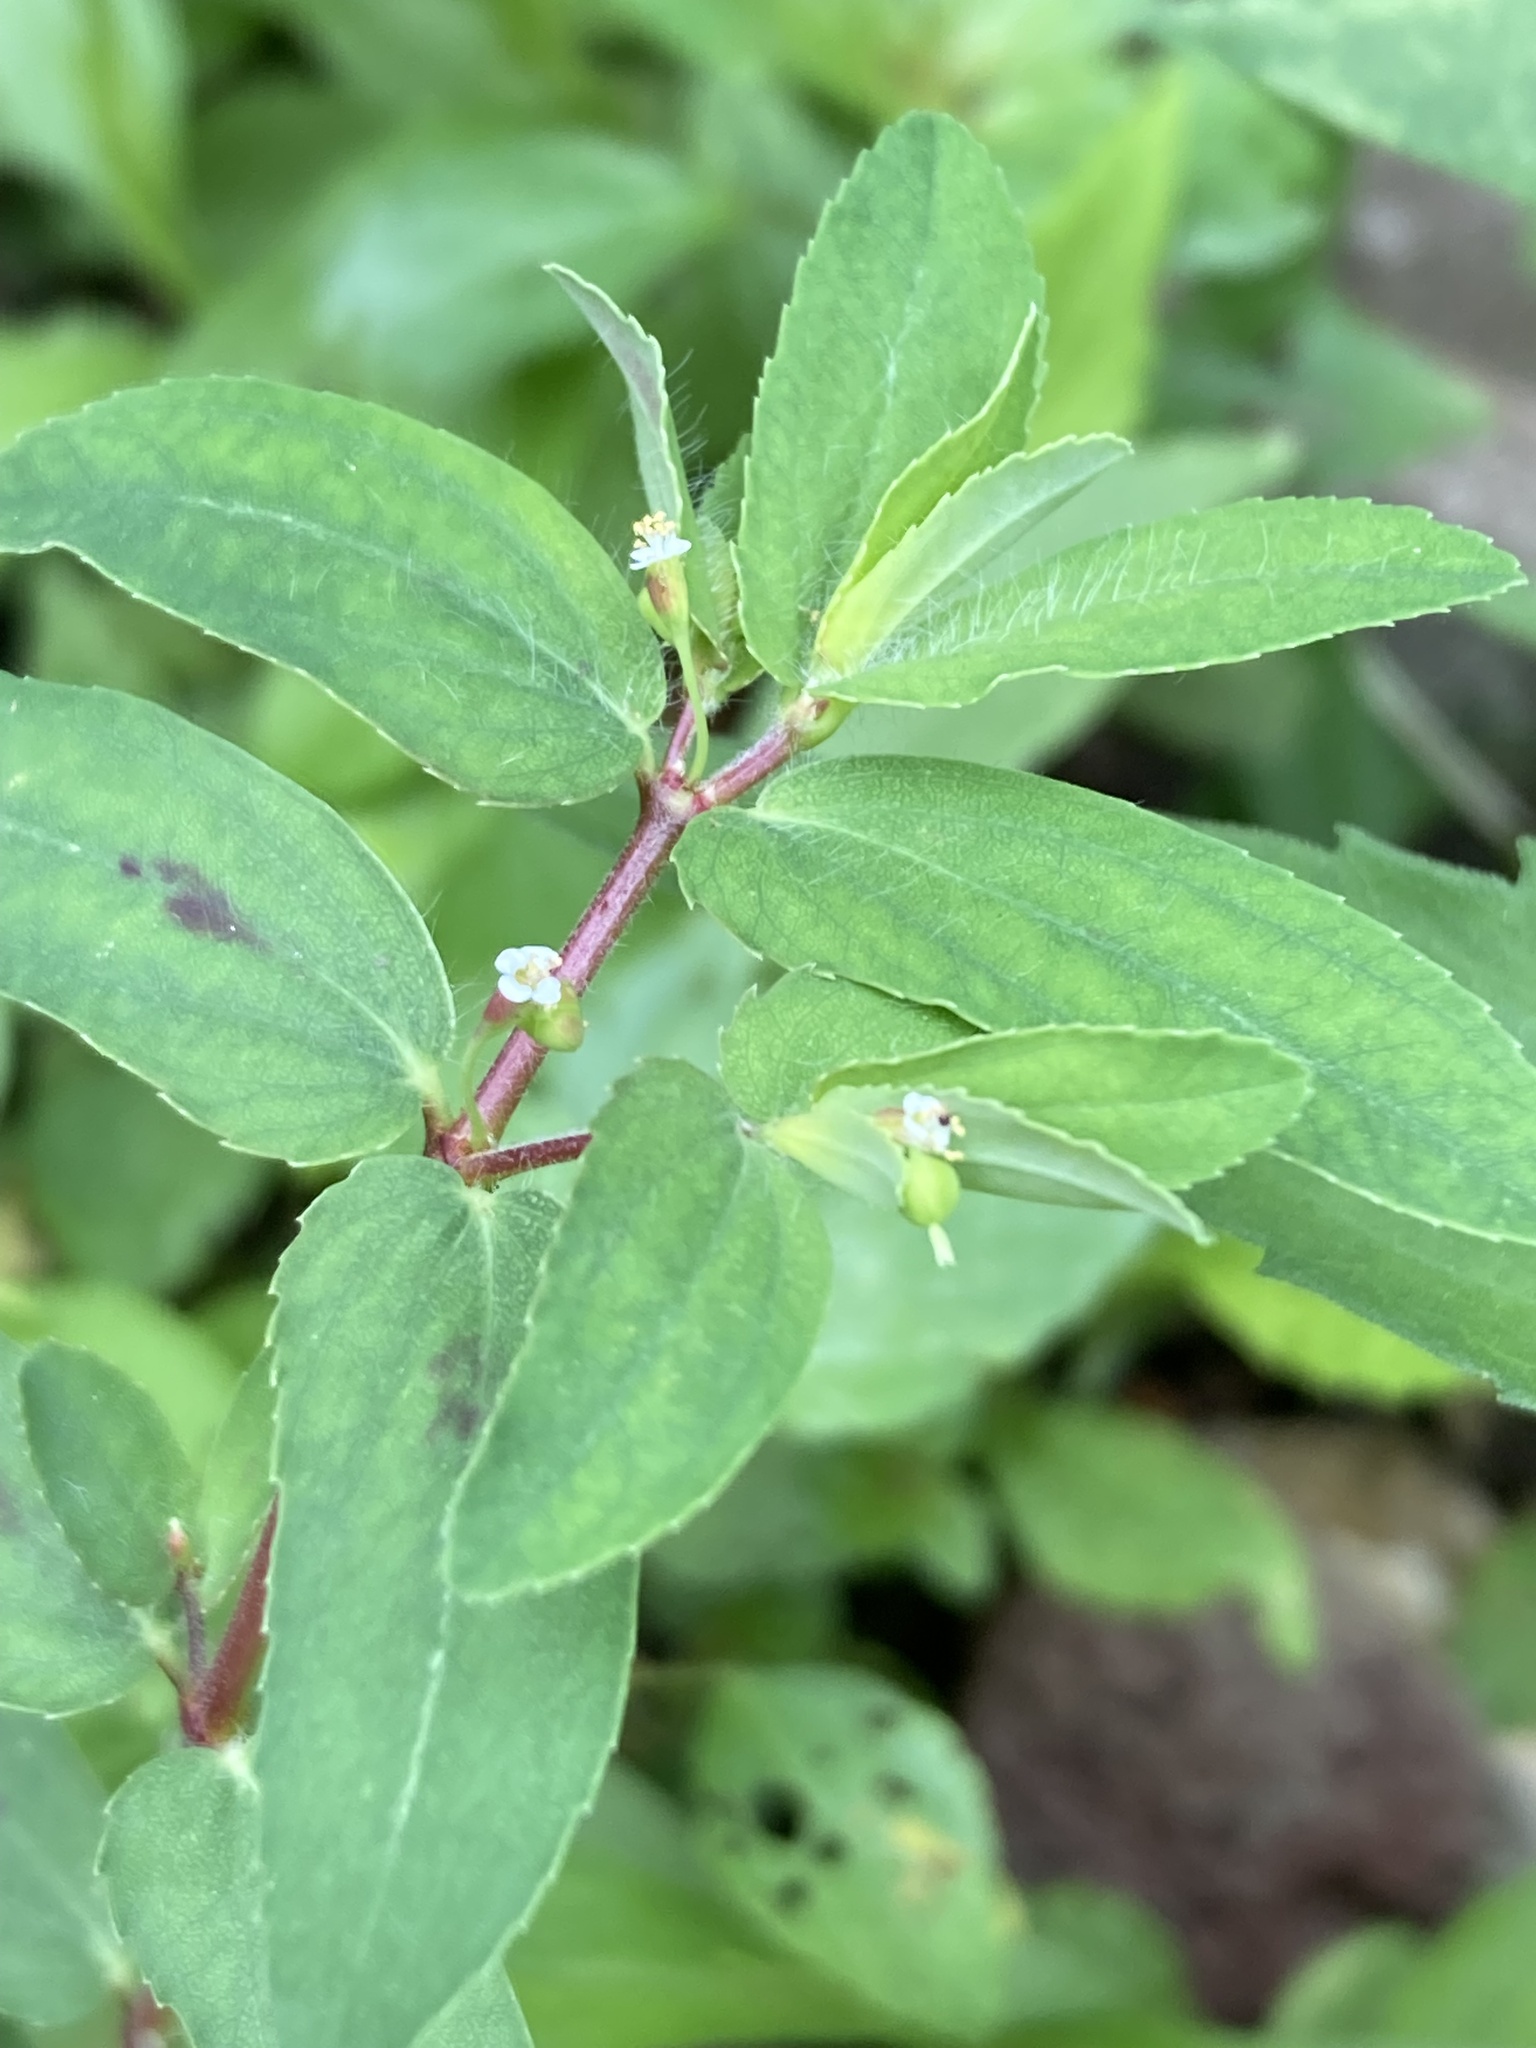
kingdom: Plantae
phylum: Tracheophyta
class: Magnoliopsida
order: Malpighiales
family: Euphorbiaceae
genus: Euphorbia
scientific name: Euphorbia nutans
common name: Eyebane
